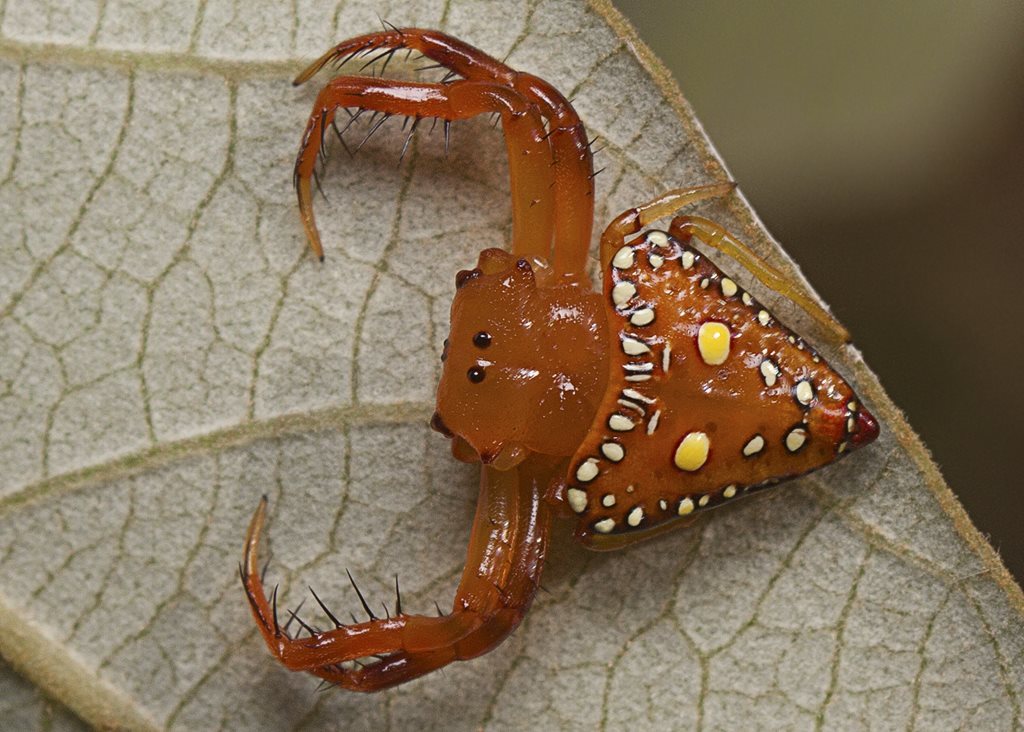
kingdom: Animalia
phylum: Arthropoda
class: Arachnida
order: Araneae
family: Arkyidae
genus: Arkys
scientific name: Arkys lancearius
